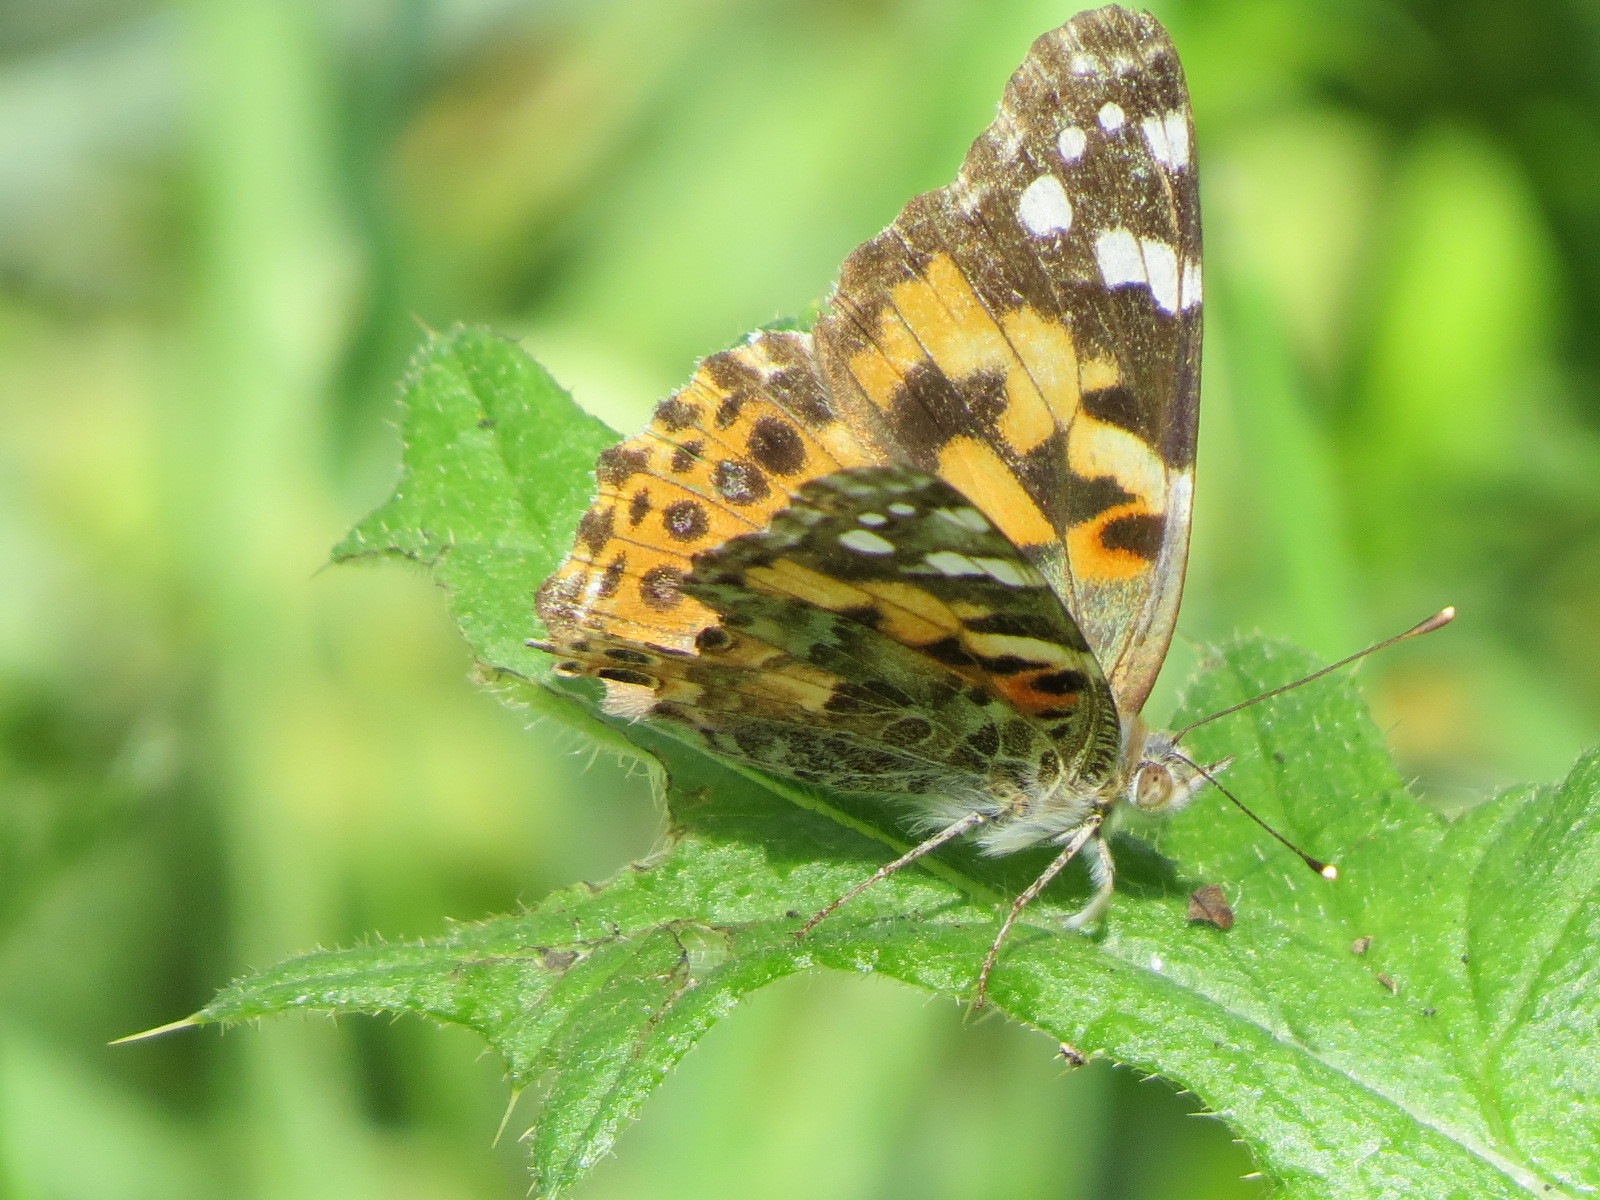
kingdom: Animalia
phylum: Arthropoda
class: Insecta
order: Lepidoptera
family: Nymphalidae
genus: Vanessa
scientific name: Vanessa cardui
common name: Painted lady
